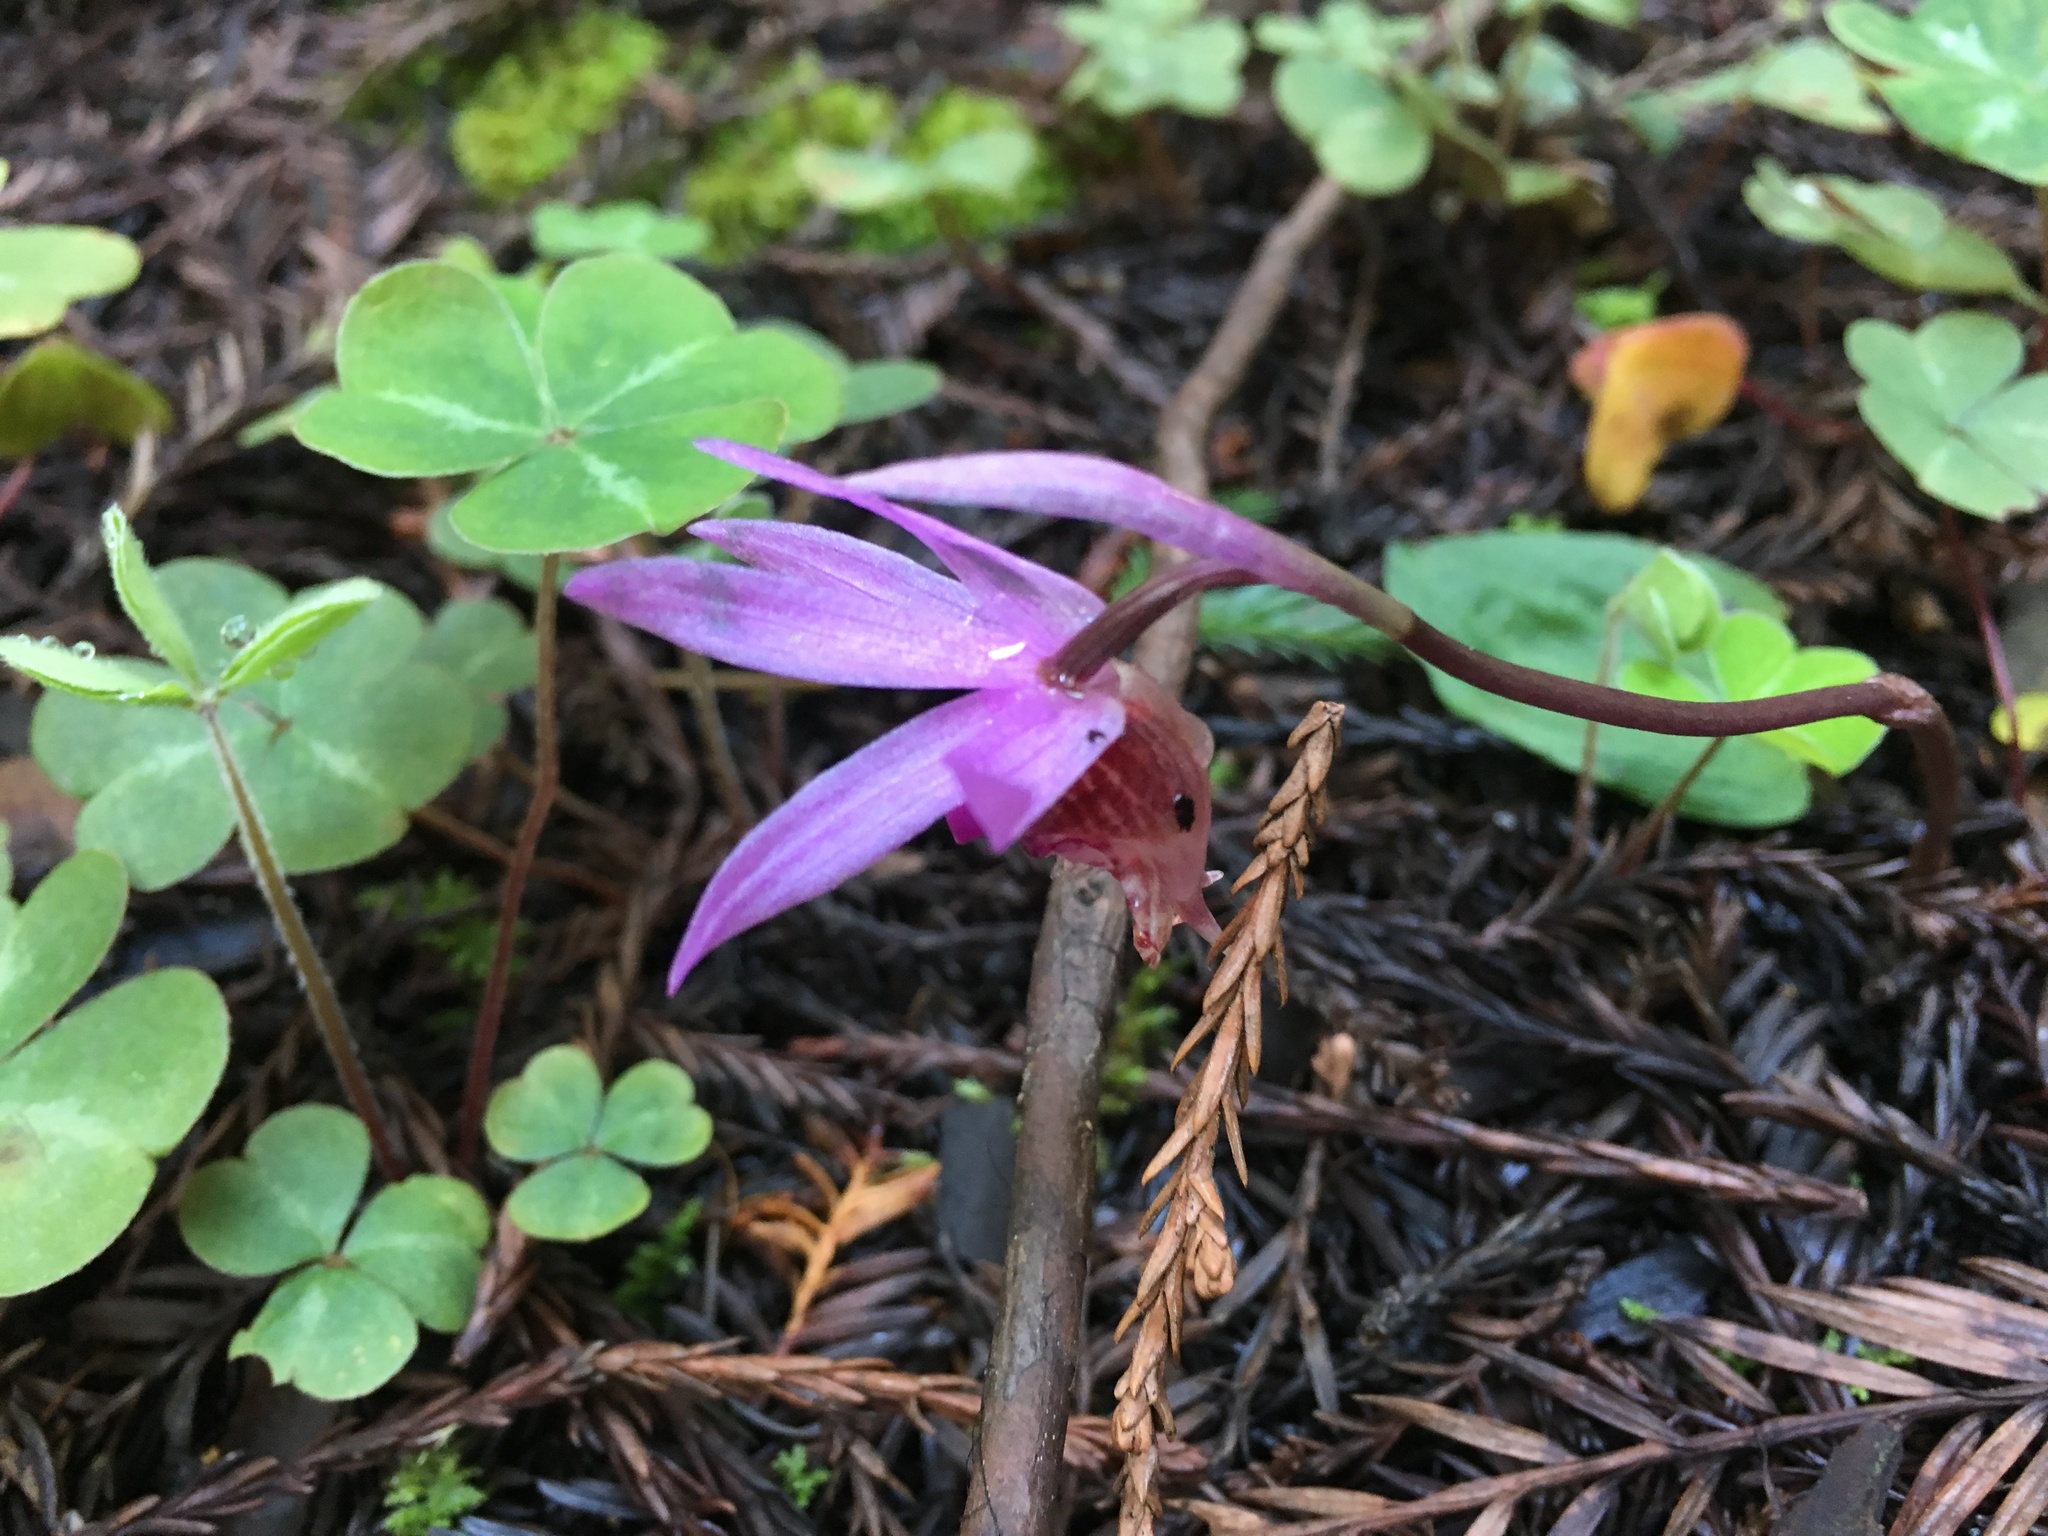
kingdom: Plantae
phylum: Tracheophyta
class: Liliopsida
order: Asparagales
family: Orchidaceae
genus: Calypso
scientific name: Calypso bulbosa
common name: Calypso
